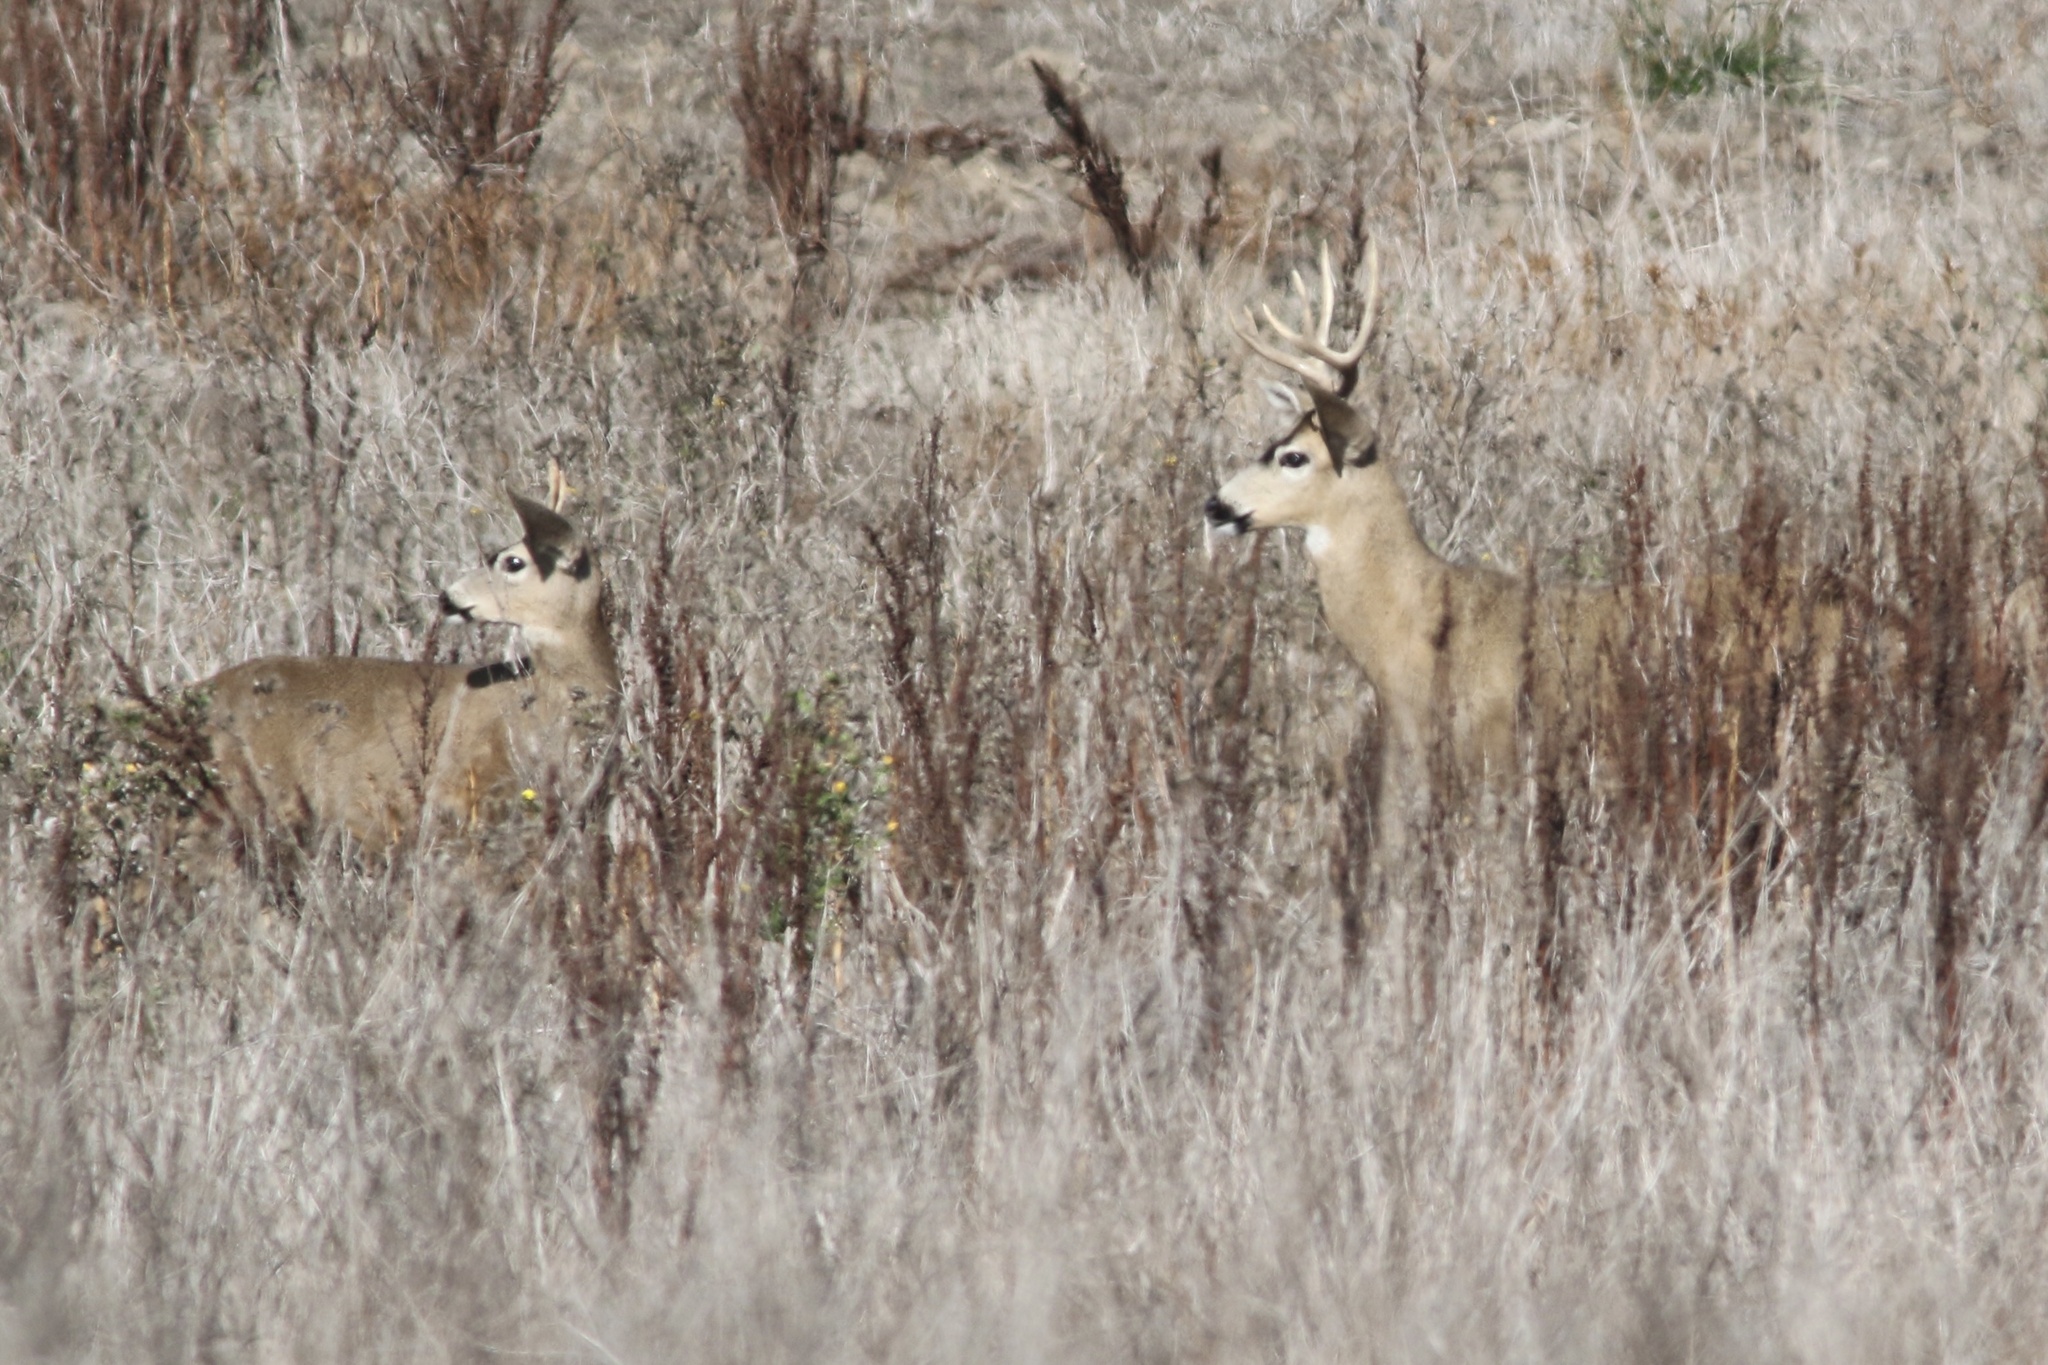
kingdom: Animalia
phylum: Chordata
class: Mammalia
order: Artiodactyla
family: Cervidae
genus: Odocoileus
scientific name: Odocoileus hemionus
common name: Mule deer
